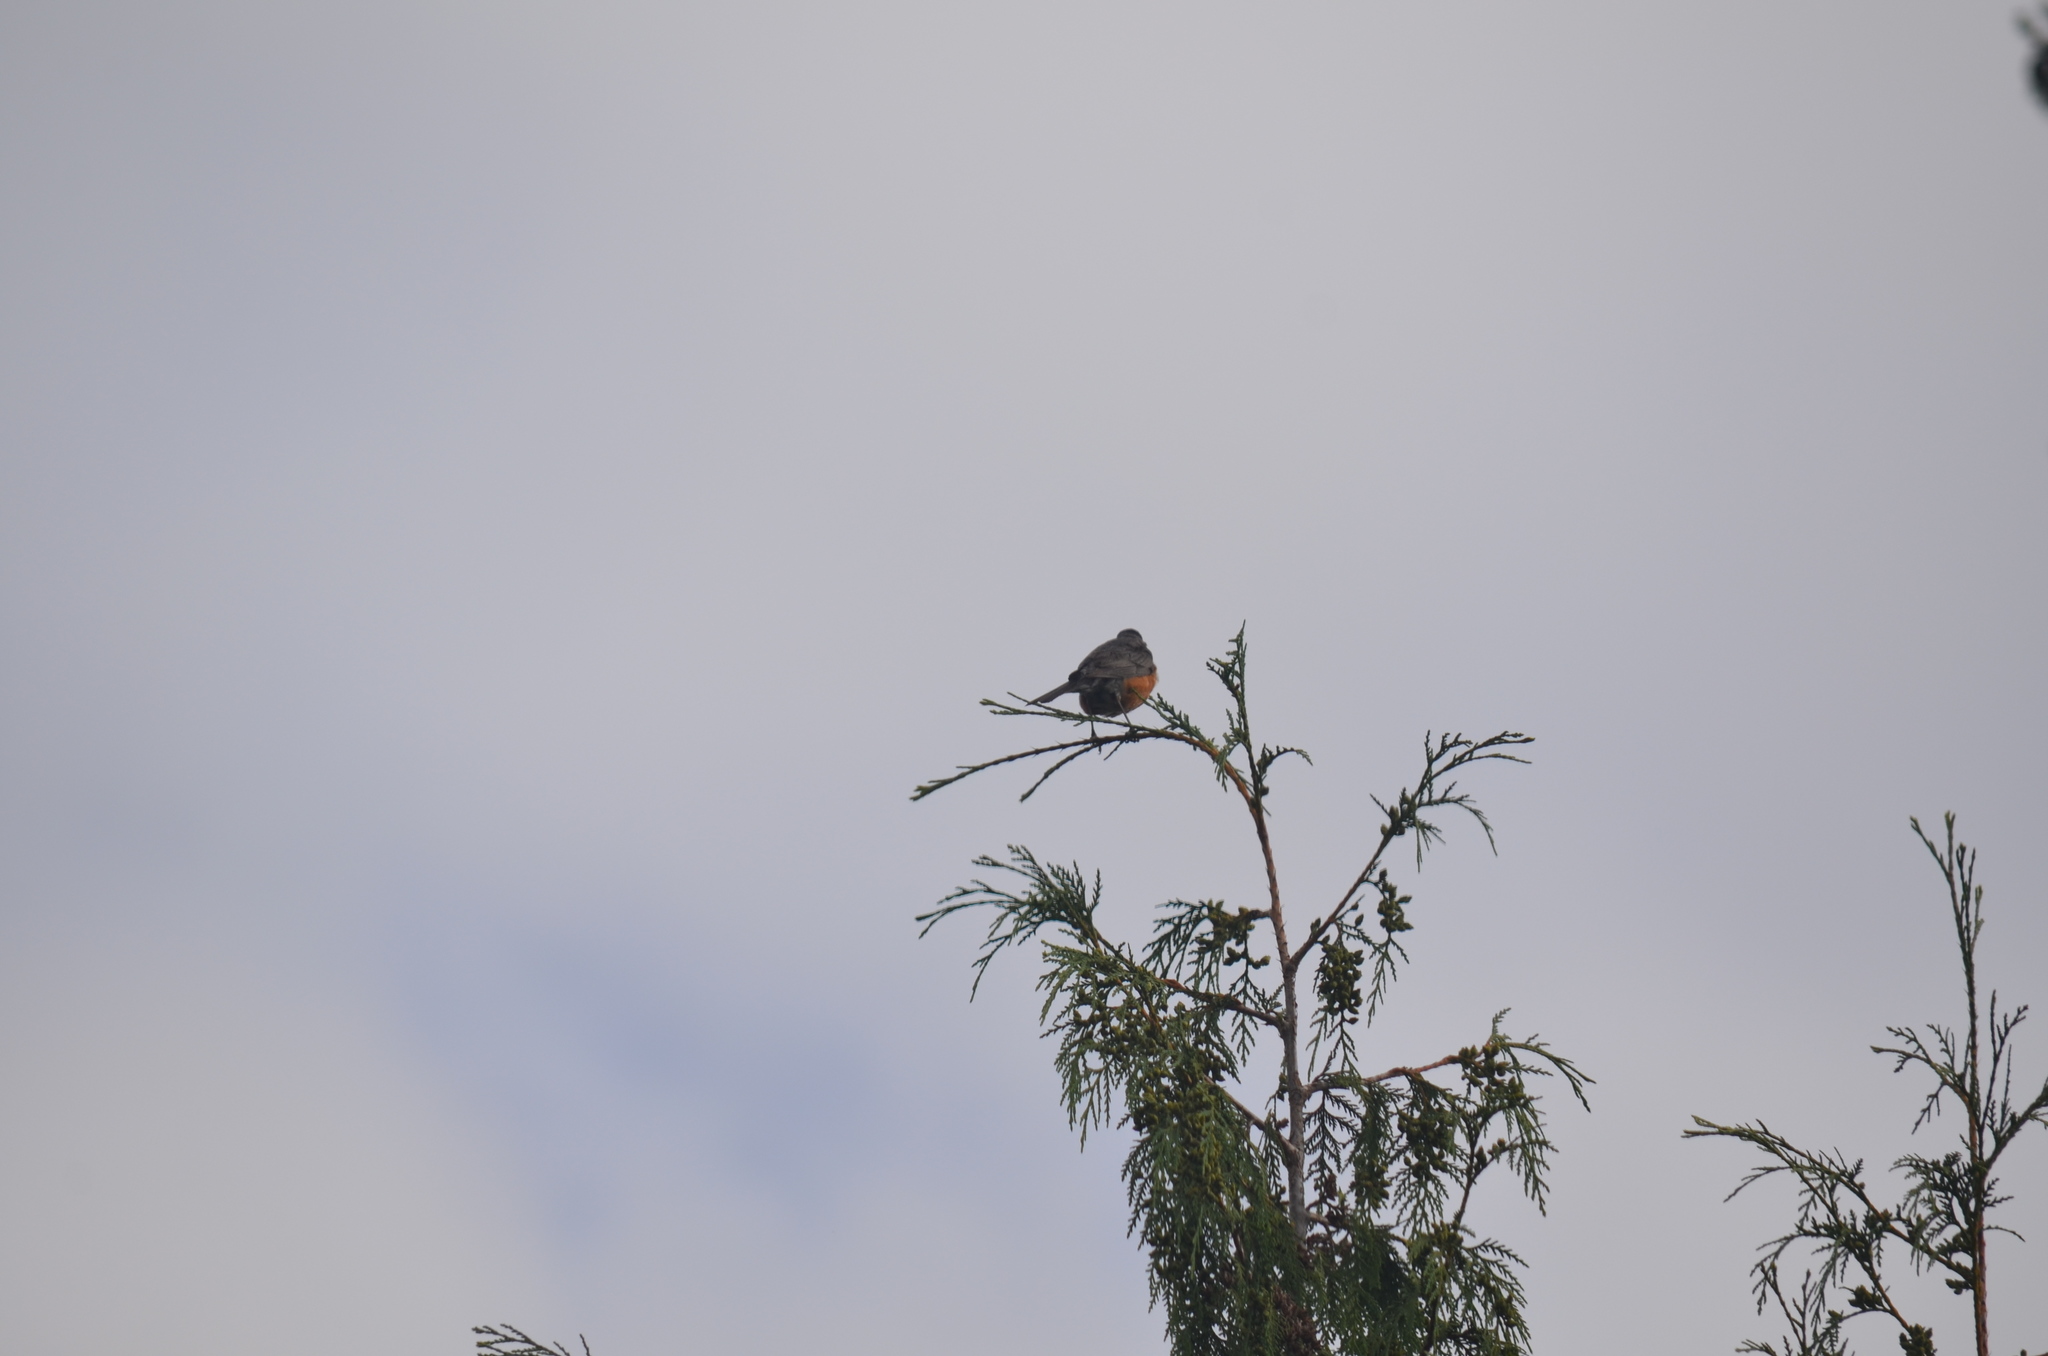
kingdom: Animalia
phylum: Chordata
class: Aves
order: Passeriformes
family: Turdidae
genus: Turdus
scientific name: Turdus migratorius
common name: American robin
